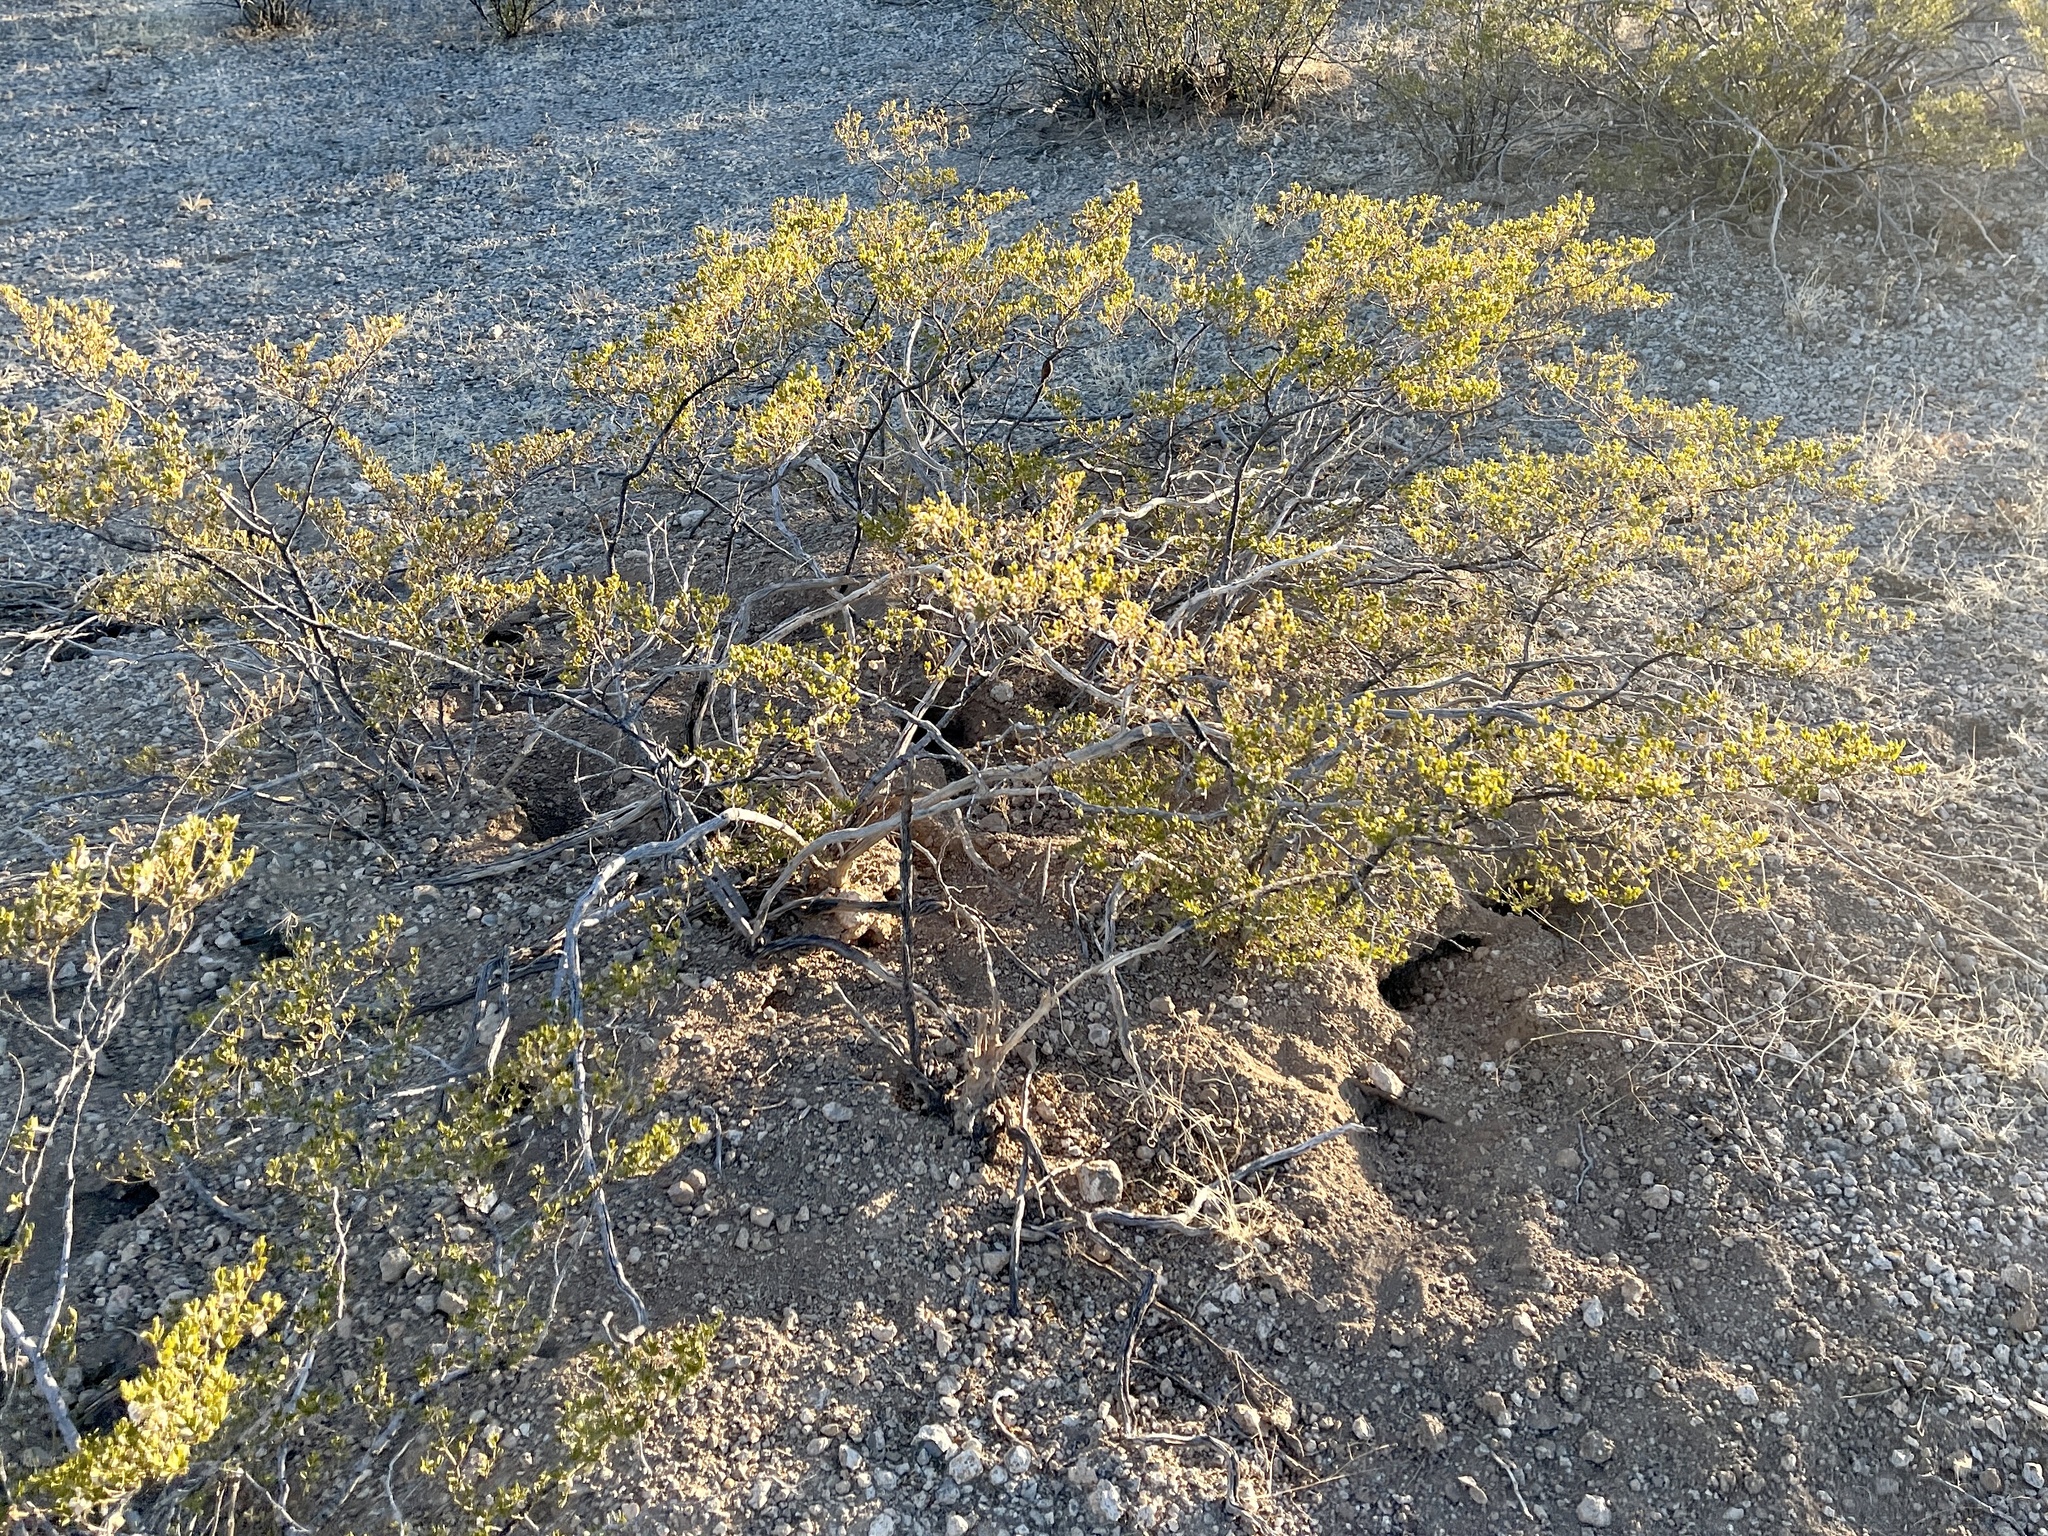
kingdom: Plantae
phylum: Tracheophyta
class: Magnoliopsida
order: Zygophyllales
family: Zygophyllaceae
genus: Larrea
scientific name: Larrea tridentata
